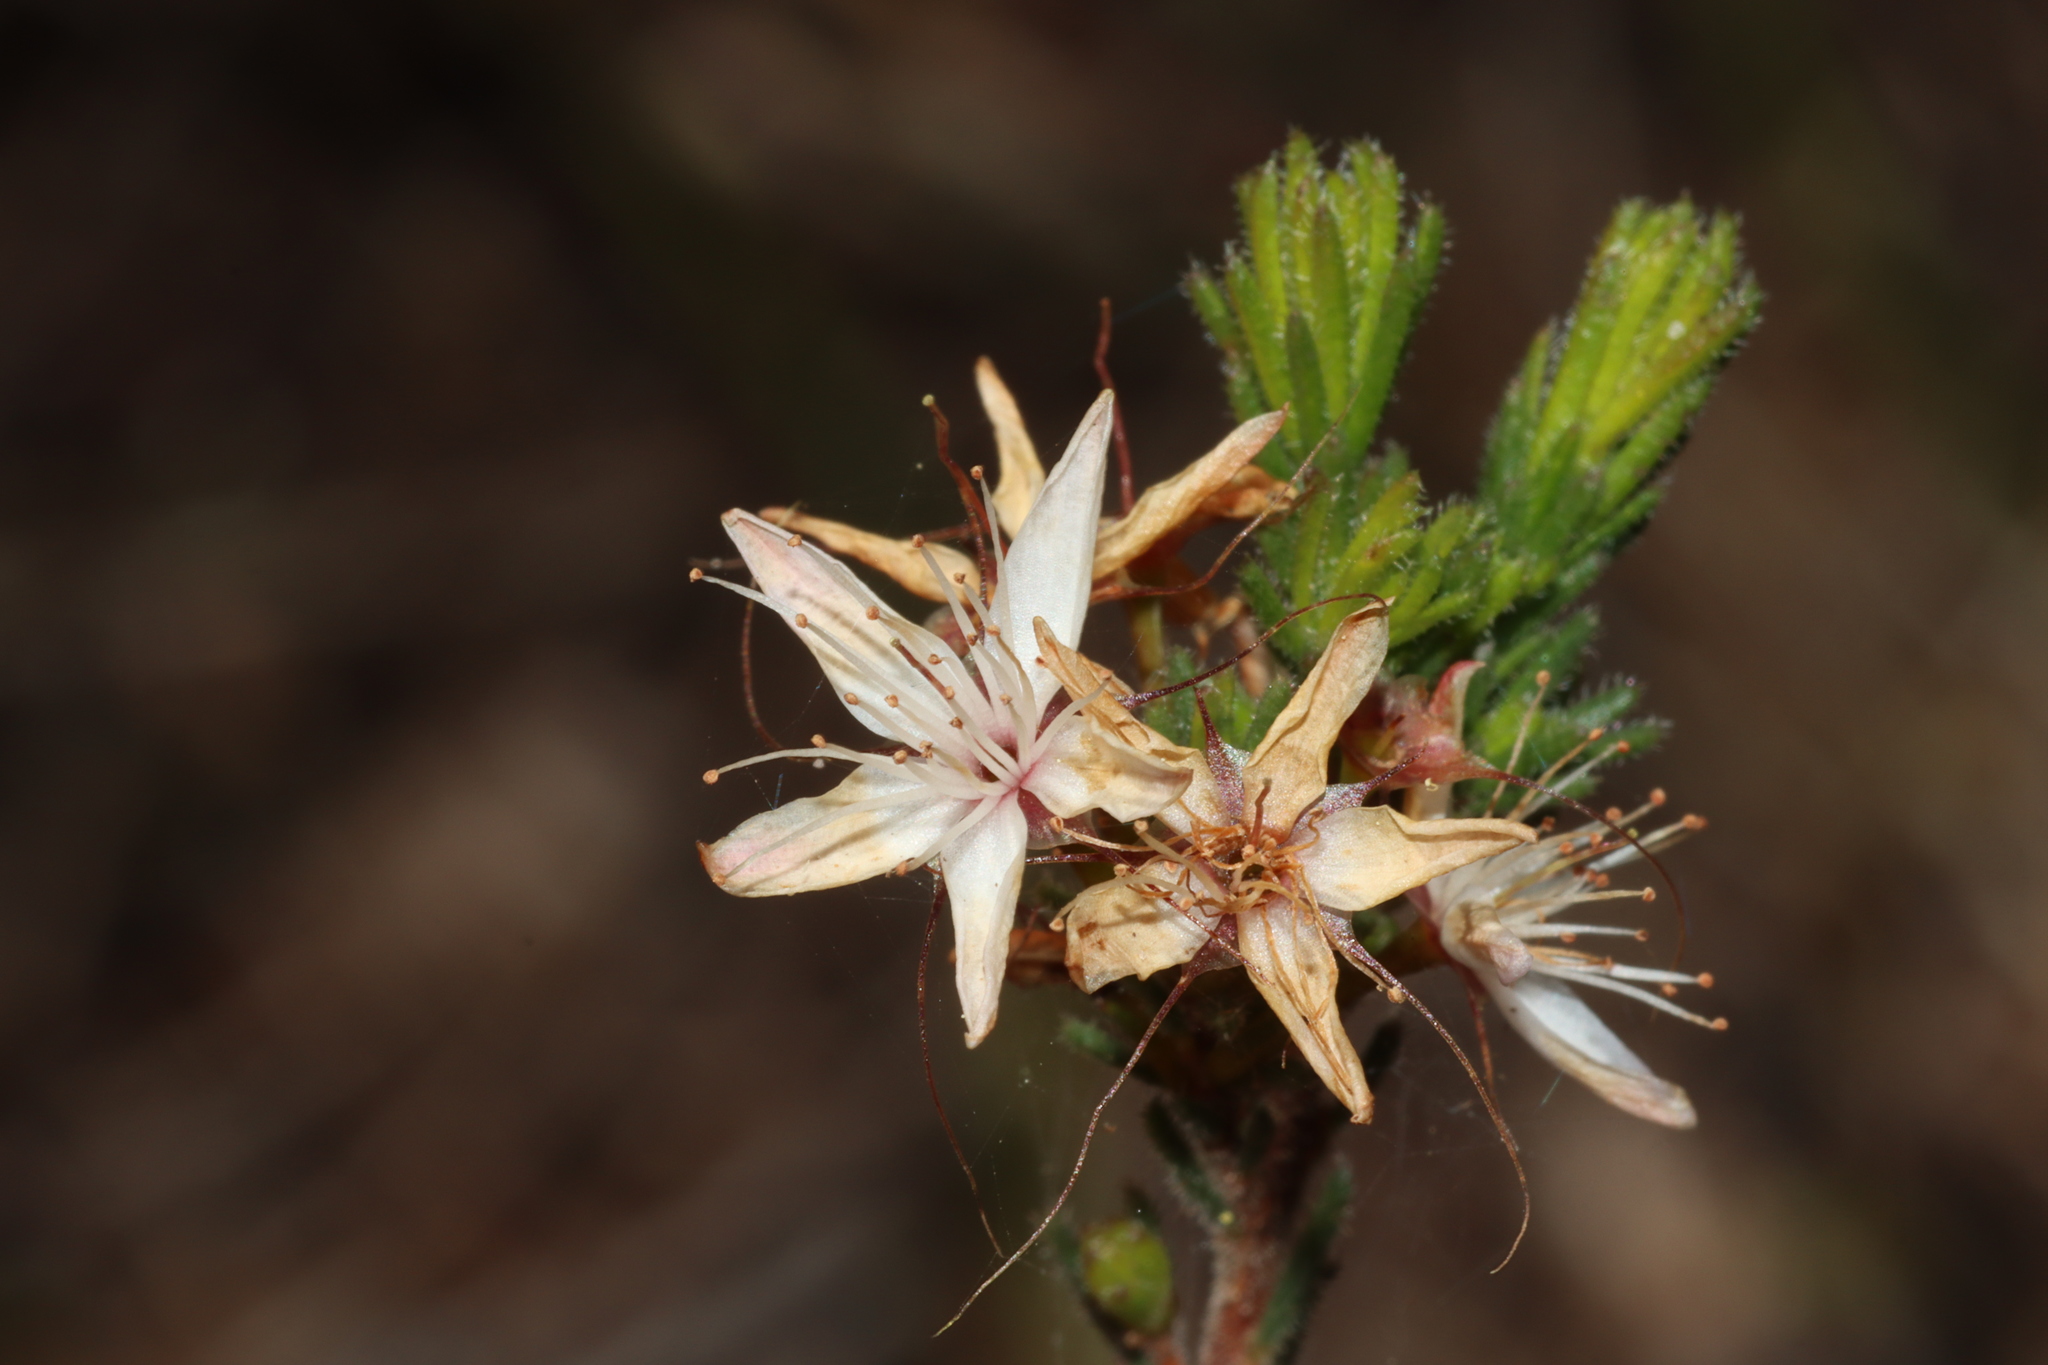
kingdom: Plantae
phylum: Tracheophyta
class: Magnoliopsida
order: Myrtales
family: Myrtaceae
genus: Calytrix
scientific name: Calytrix tetragona
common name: Common fringe myrtle
